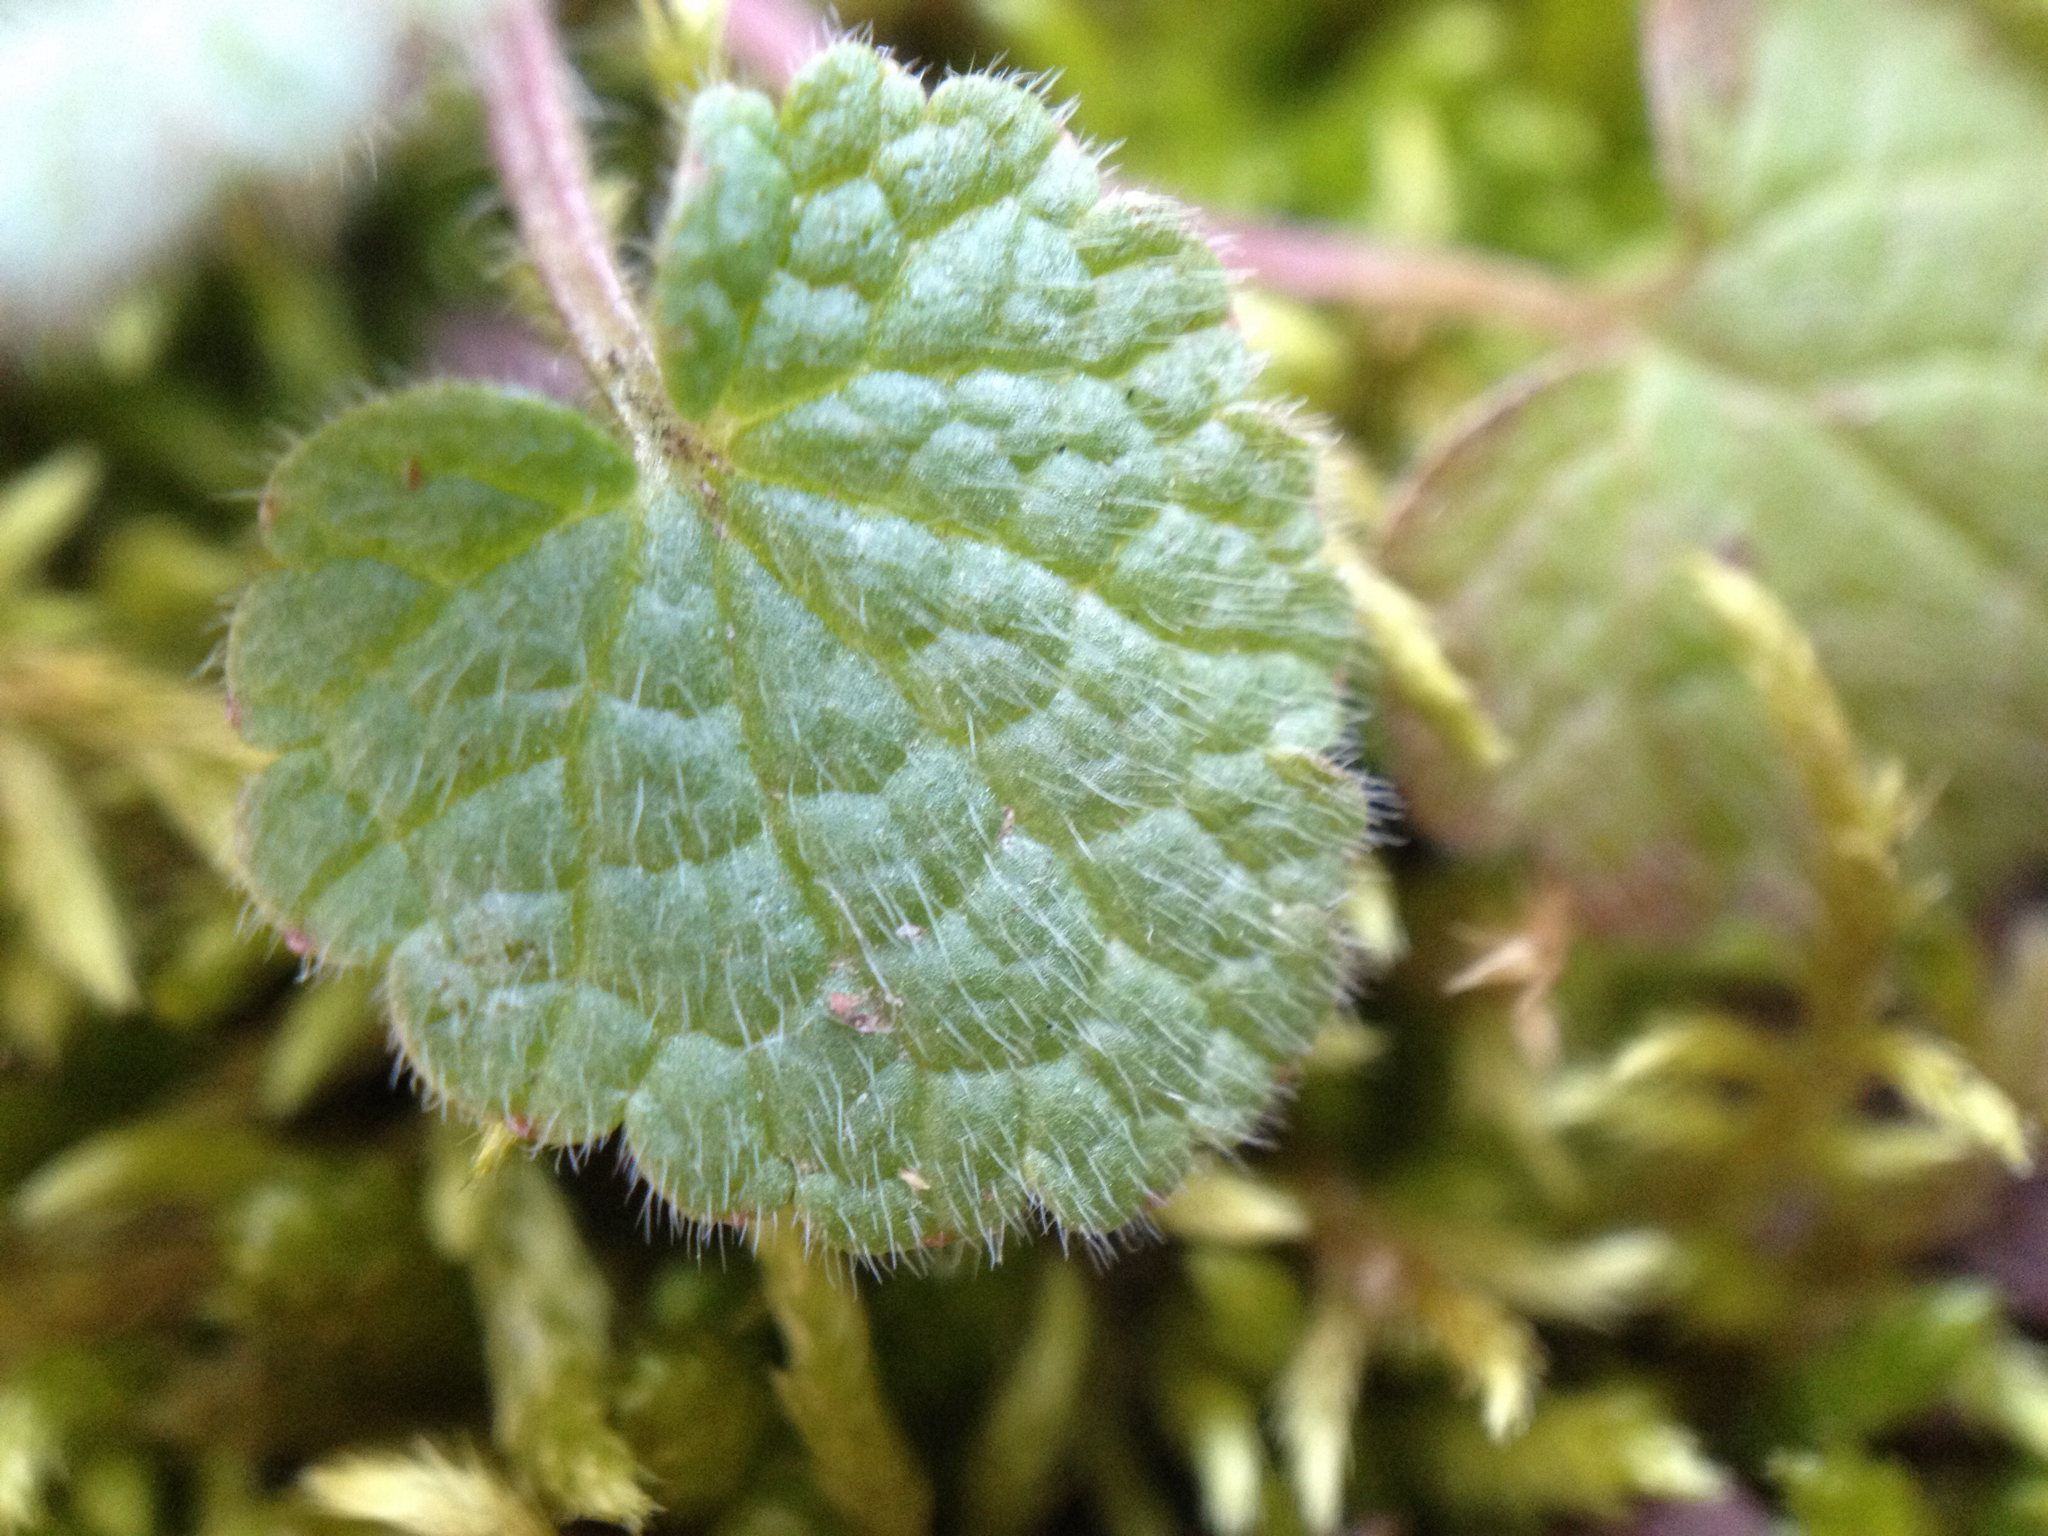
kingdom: Plantae
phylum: Tracheophyta
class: Magnoliopsida
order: Lamiales
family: Lamiaceae
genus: Lamium
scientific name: Lamium purpureum
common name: Red dead-nettle
